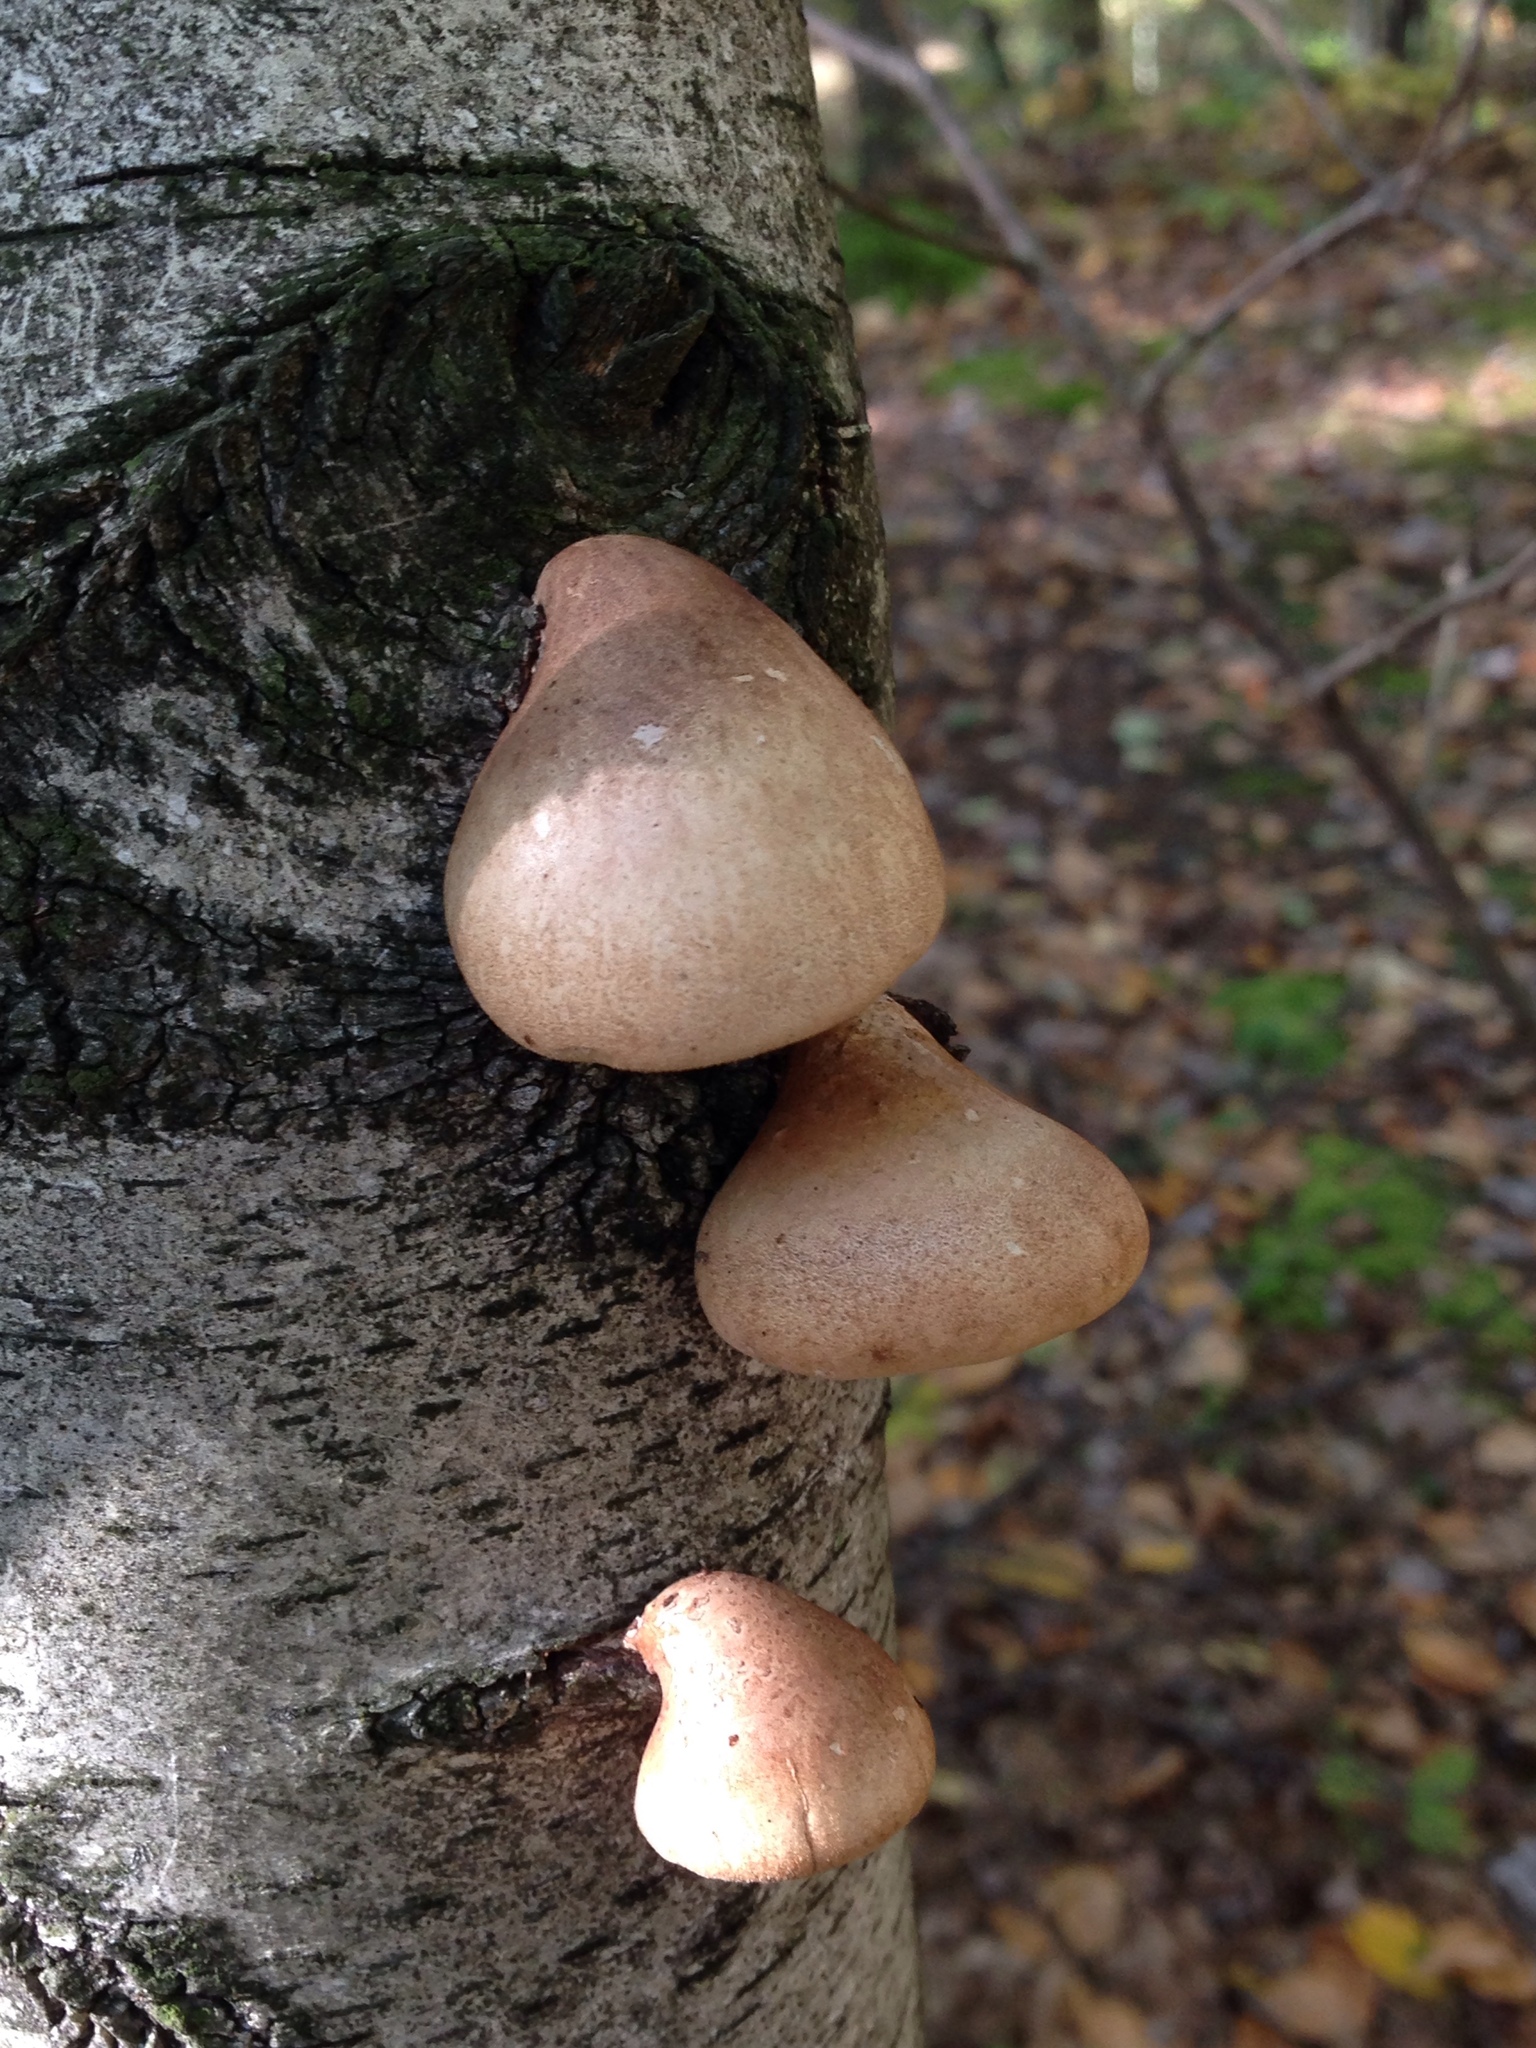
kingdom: Fungi
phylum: Basidiomycota
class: Agaricomycetes
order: Polyporales
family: Fomitopsidaceae
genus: Fomitopsis
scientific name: Fomitopsis betulina
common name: Birch polypore
